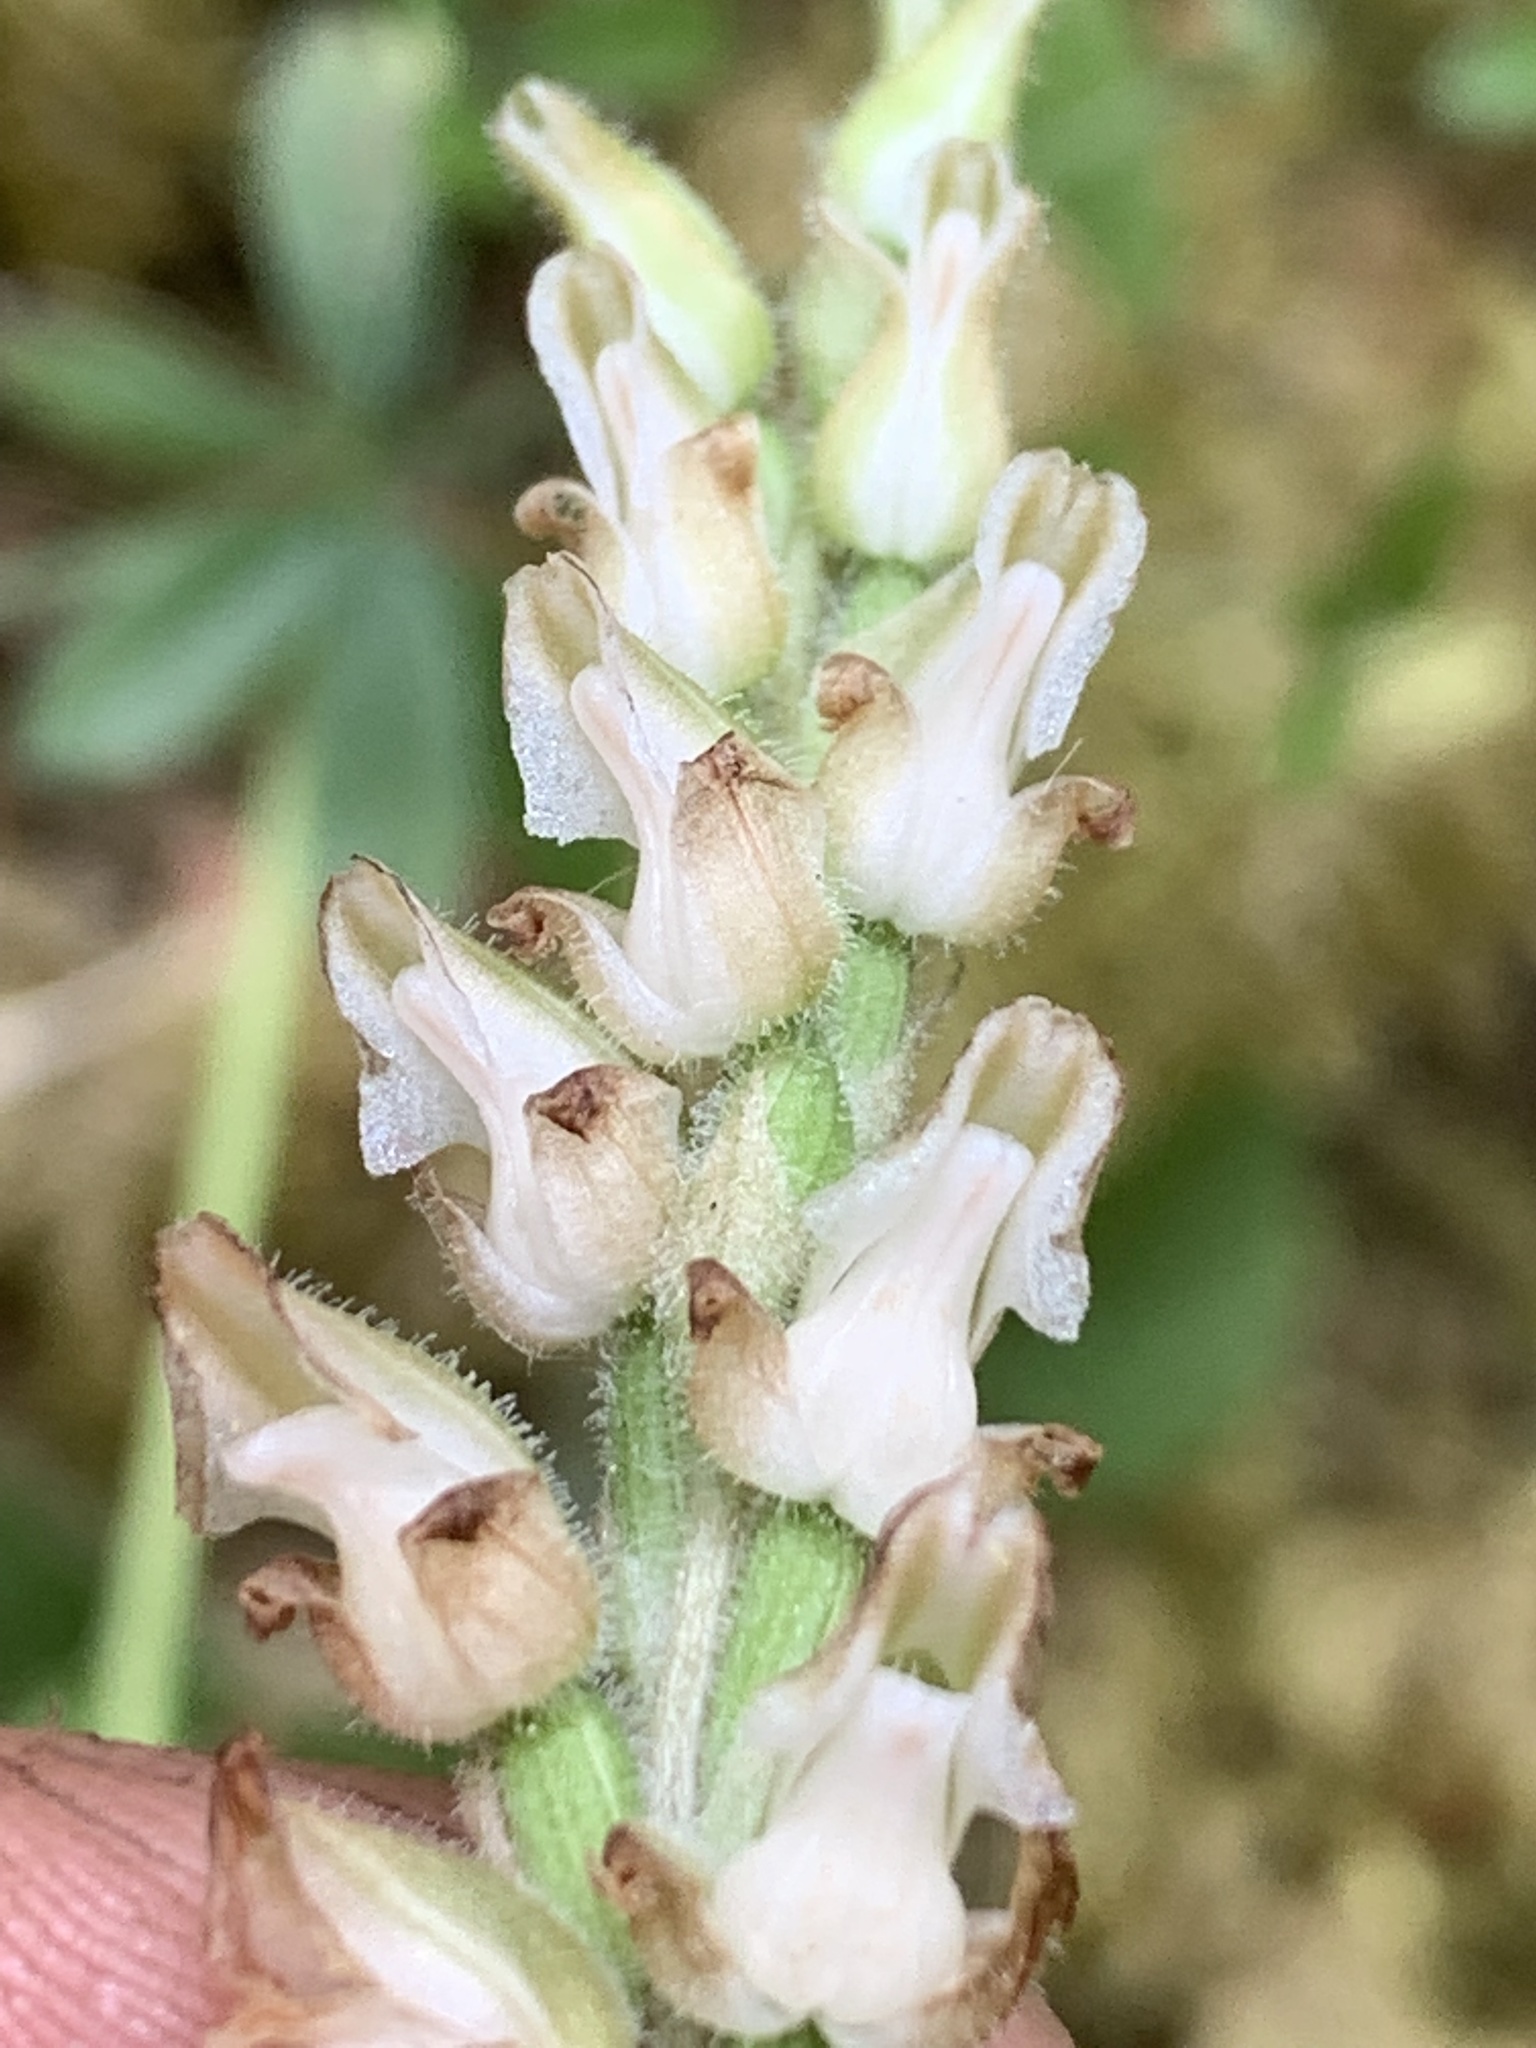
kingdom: Plantae
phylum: Tracheophyta
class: Liliopsida
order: Asparagales
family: Orchidaceae
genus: Goodyera
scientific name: Goodyera oblongifolia
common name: Giant rattlesnake-plantain
